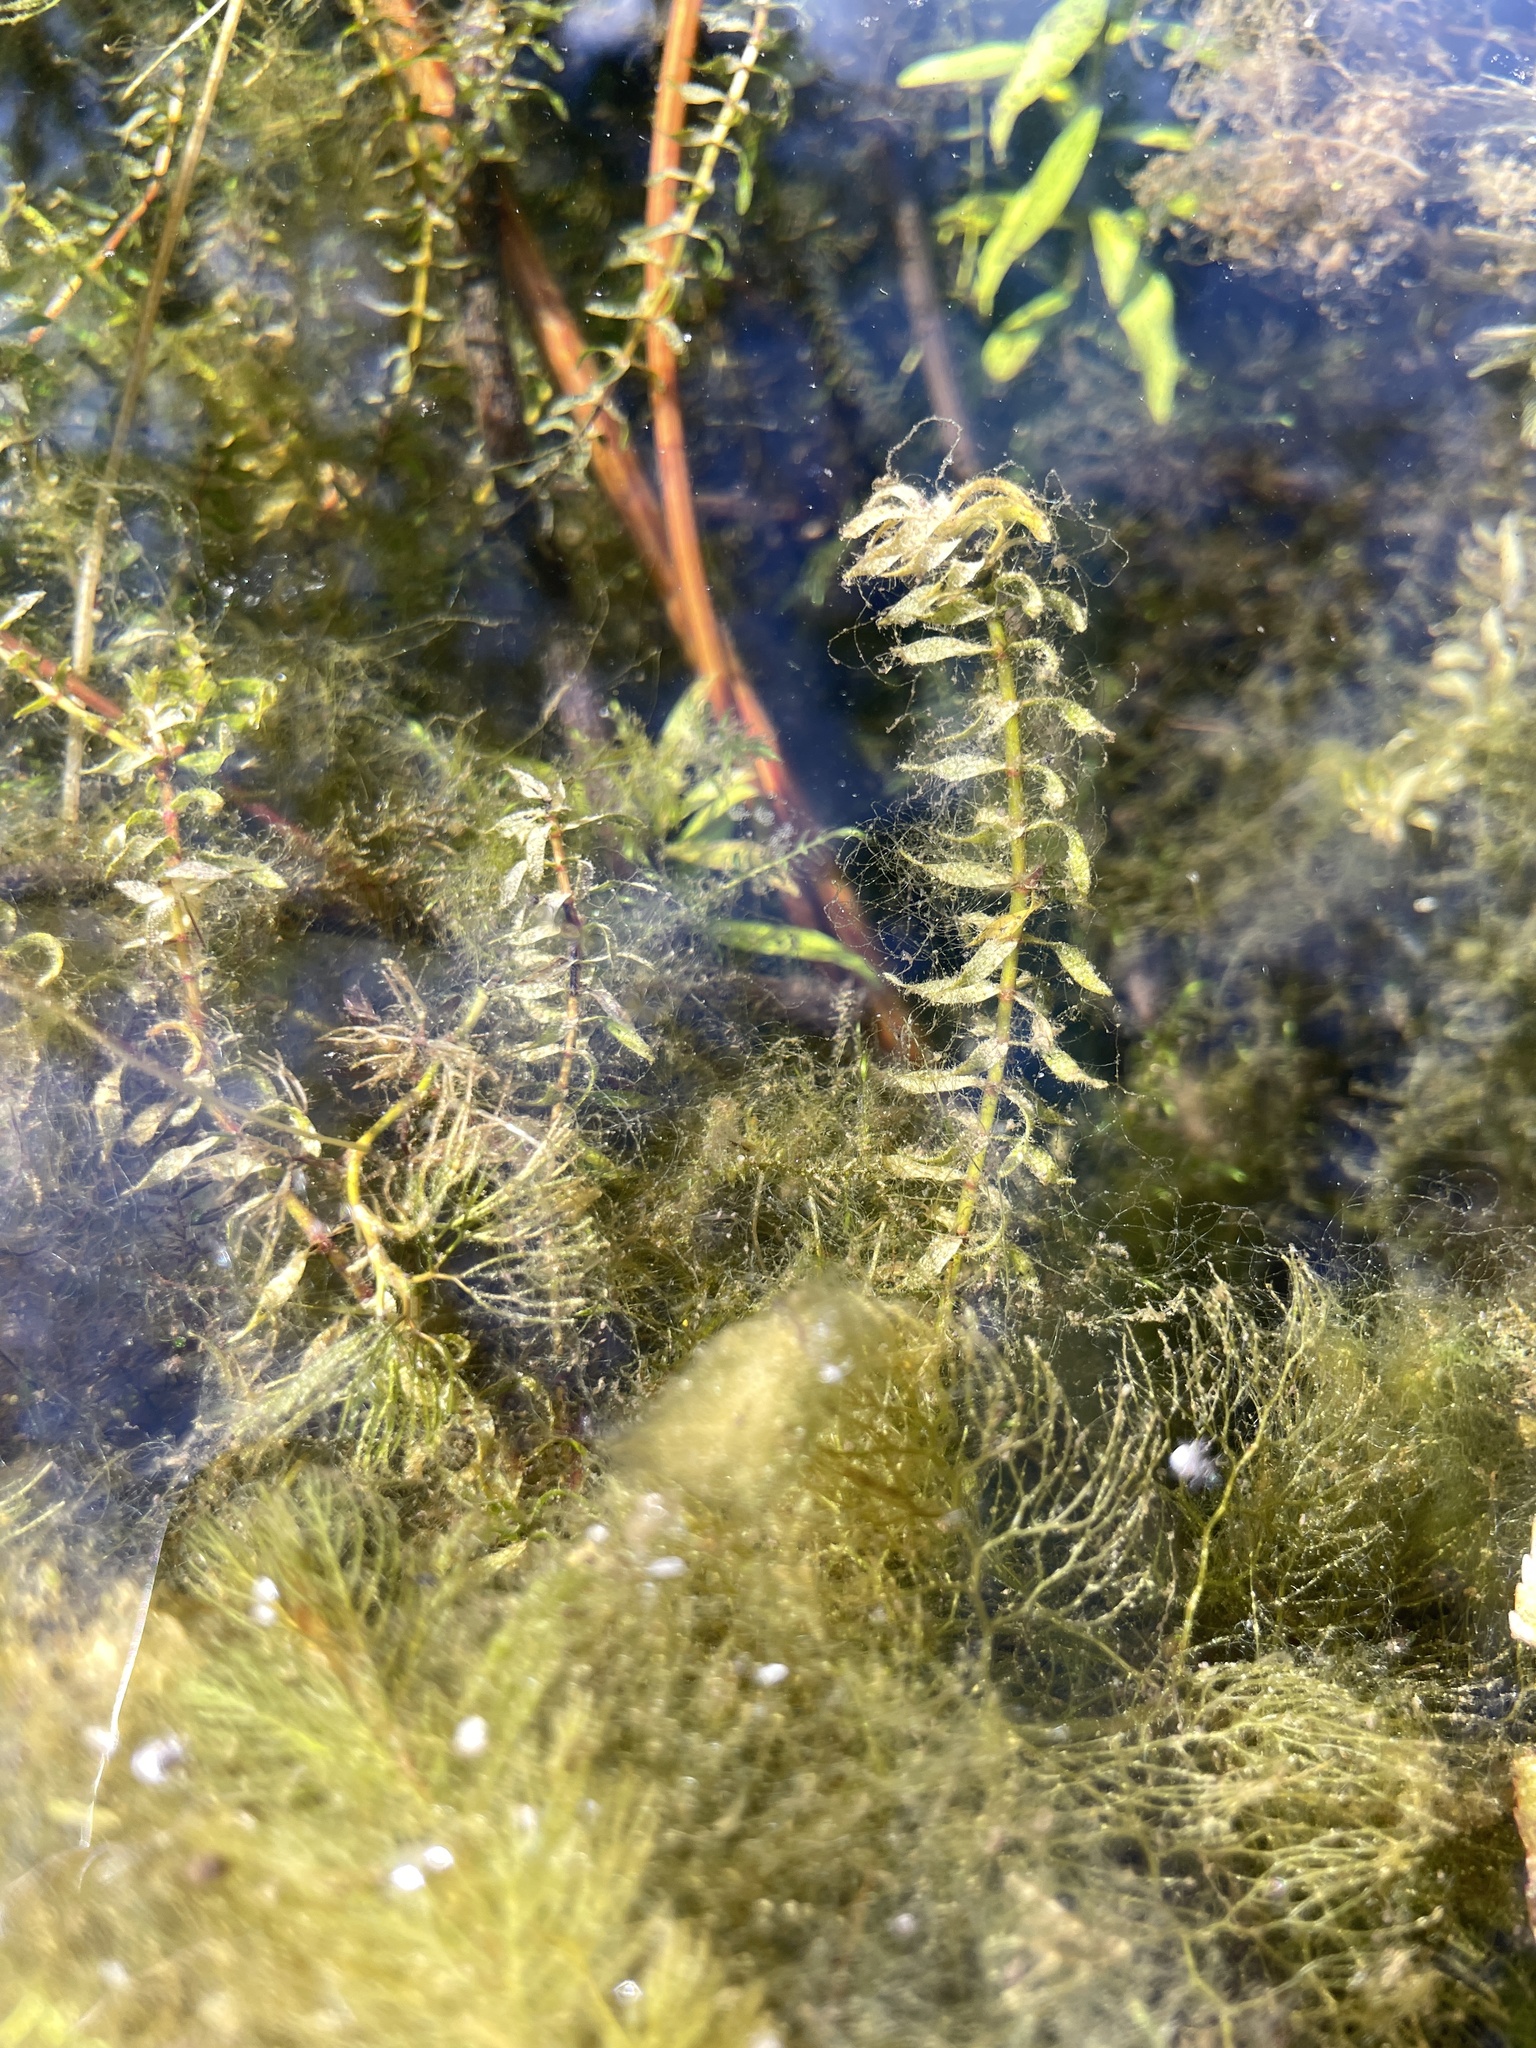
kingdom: Plantae
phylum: Tracheophyta
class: Liliopsida
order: Alismatales
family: Hydrocharitaceae
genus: Elodea
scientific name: Elodea canadensis
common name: Canadian waterweed
